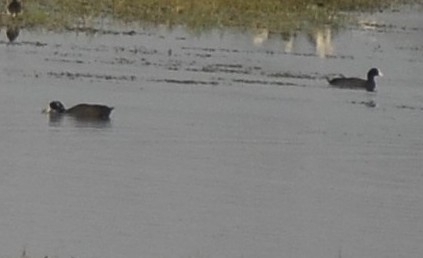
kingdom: Animalia
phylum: Chordata
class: Aves
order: Gruiformes
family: Rallidae
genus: Fulica
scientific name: Fulica atra
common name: Eurasian coot
